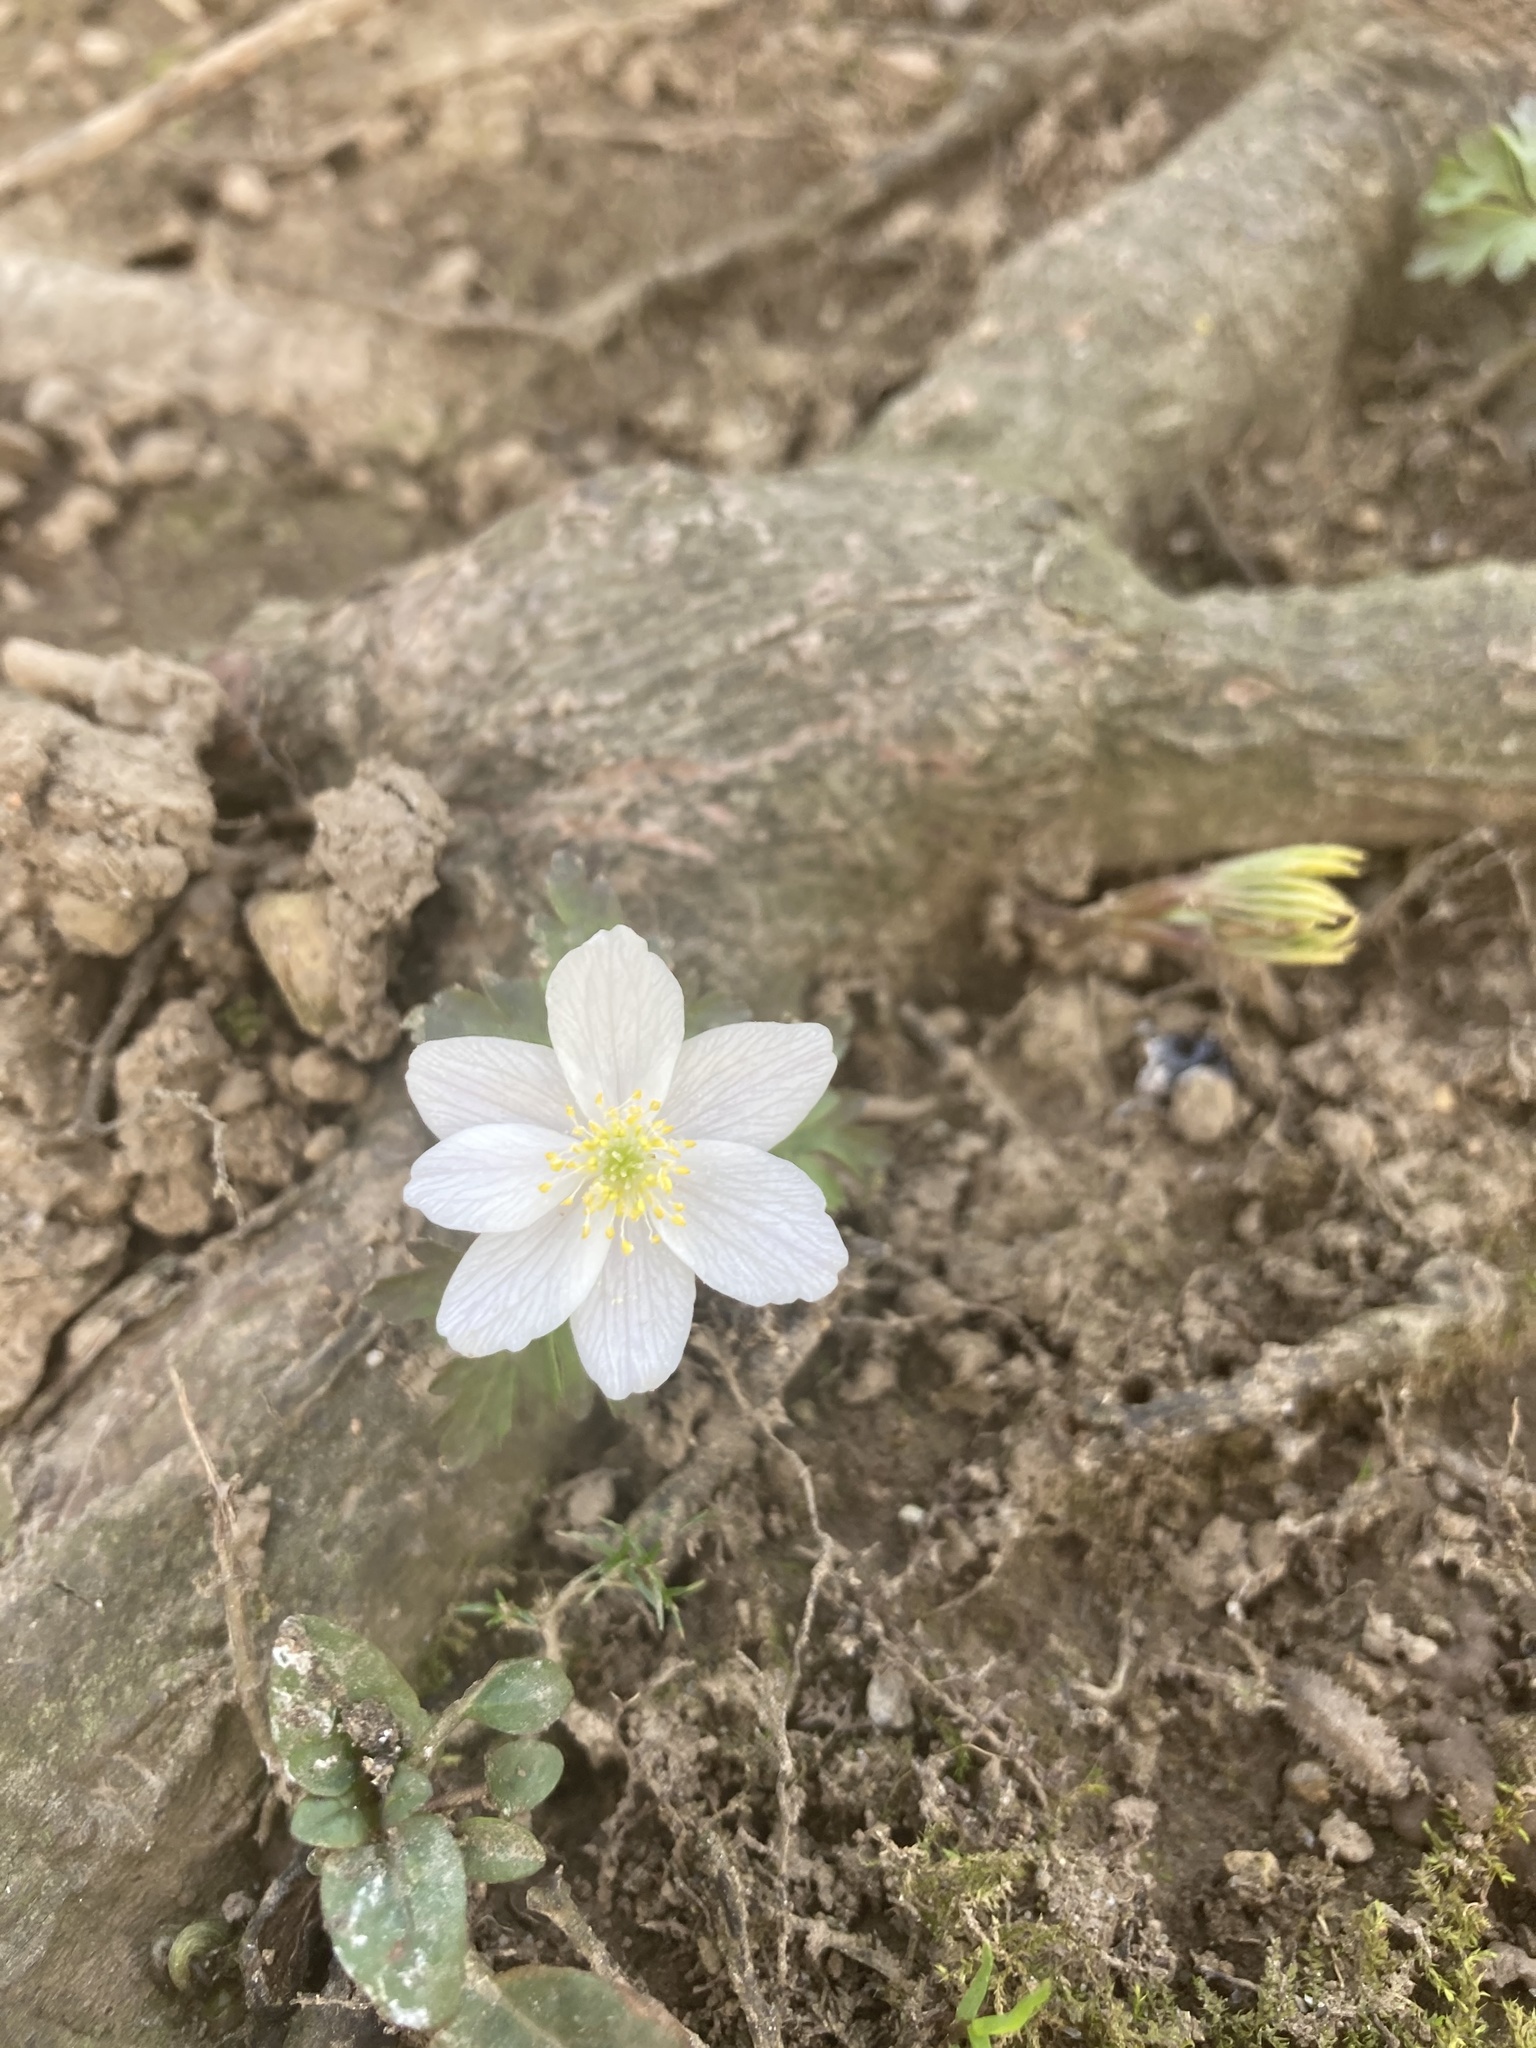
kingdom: Plantae
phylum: Tracheophyta
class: Magnoliopsida
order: Ranunculales
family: Ranunculaceae
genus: Anemone
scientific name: Anemone nemorosa
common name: Wood anemone
